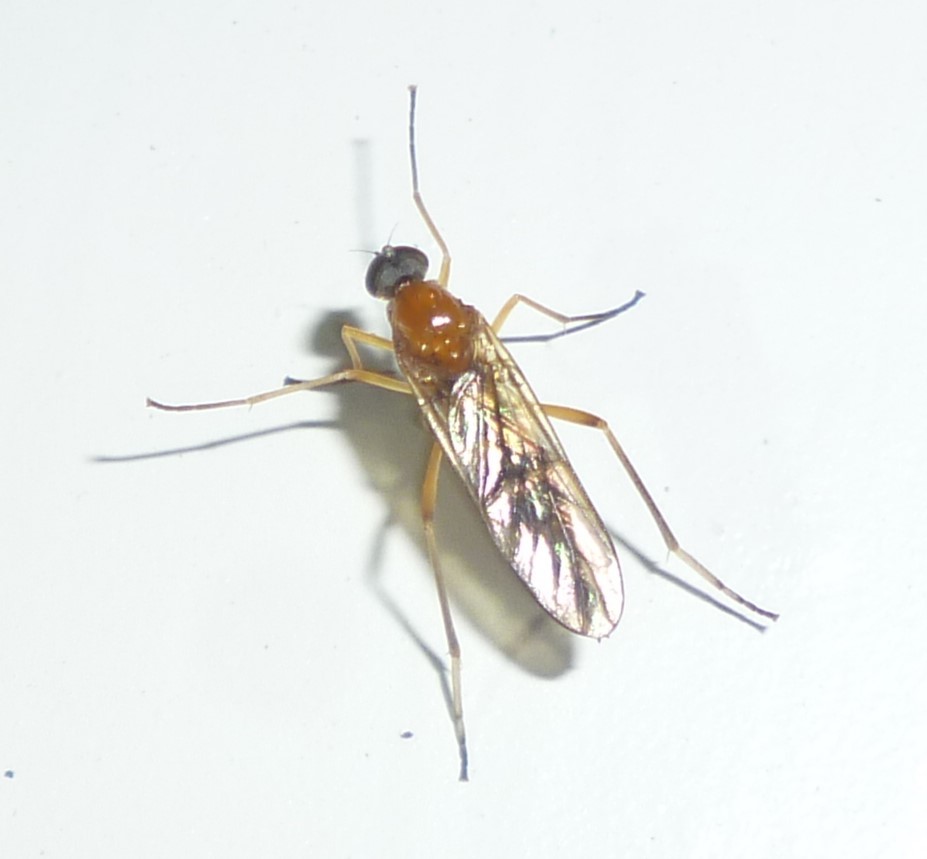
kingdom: Animalia
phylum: Arthropoda
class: Insecta
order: Diptera
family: Xylophagidae
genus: Dialysis
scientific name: Dialysis elongata
